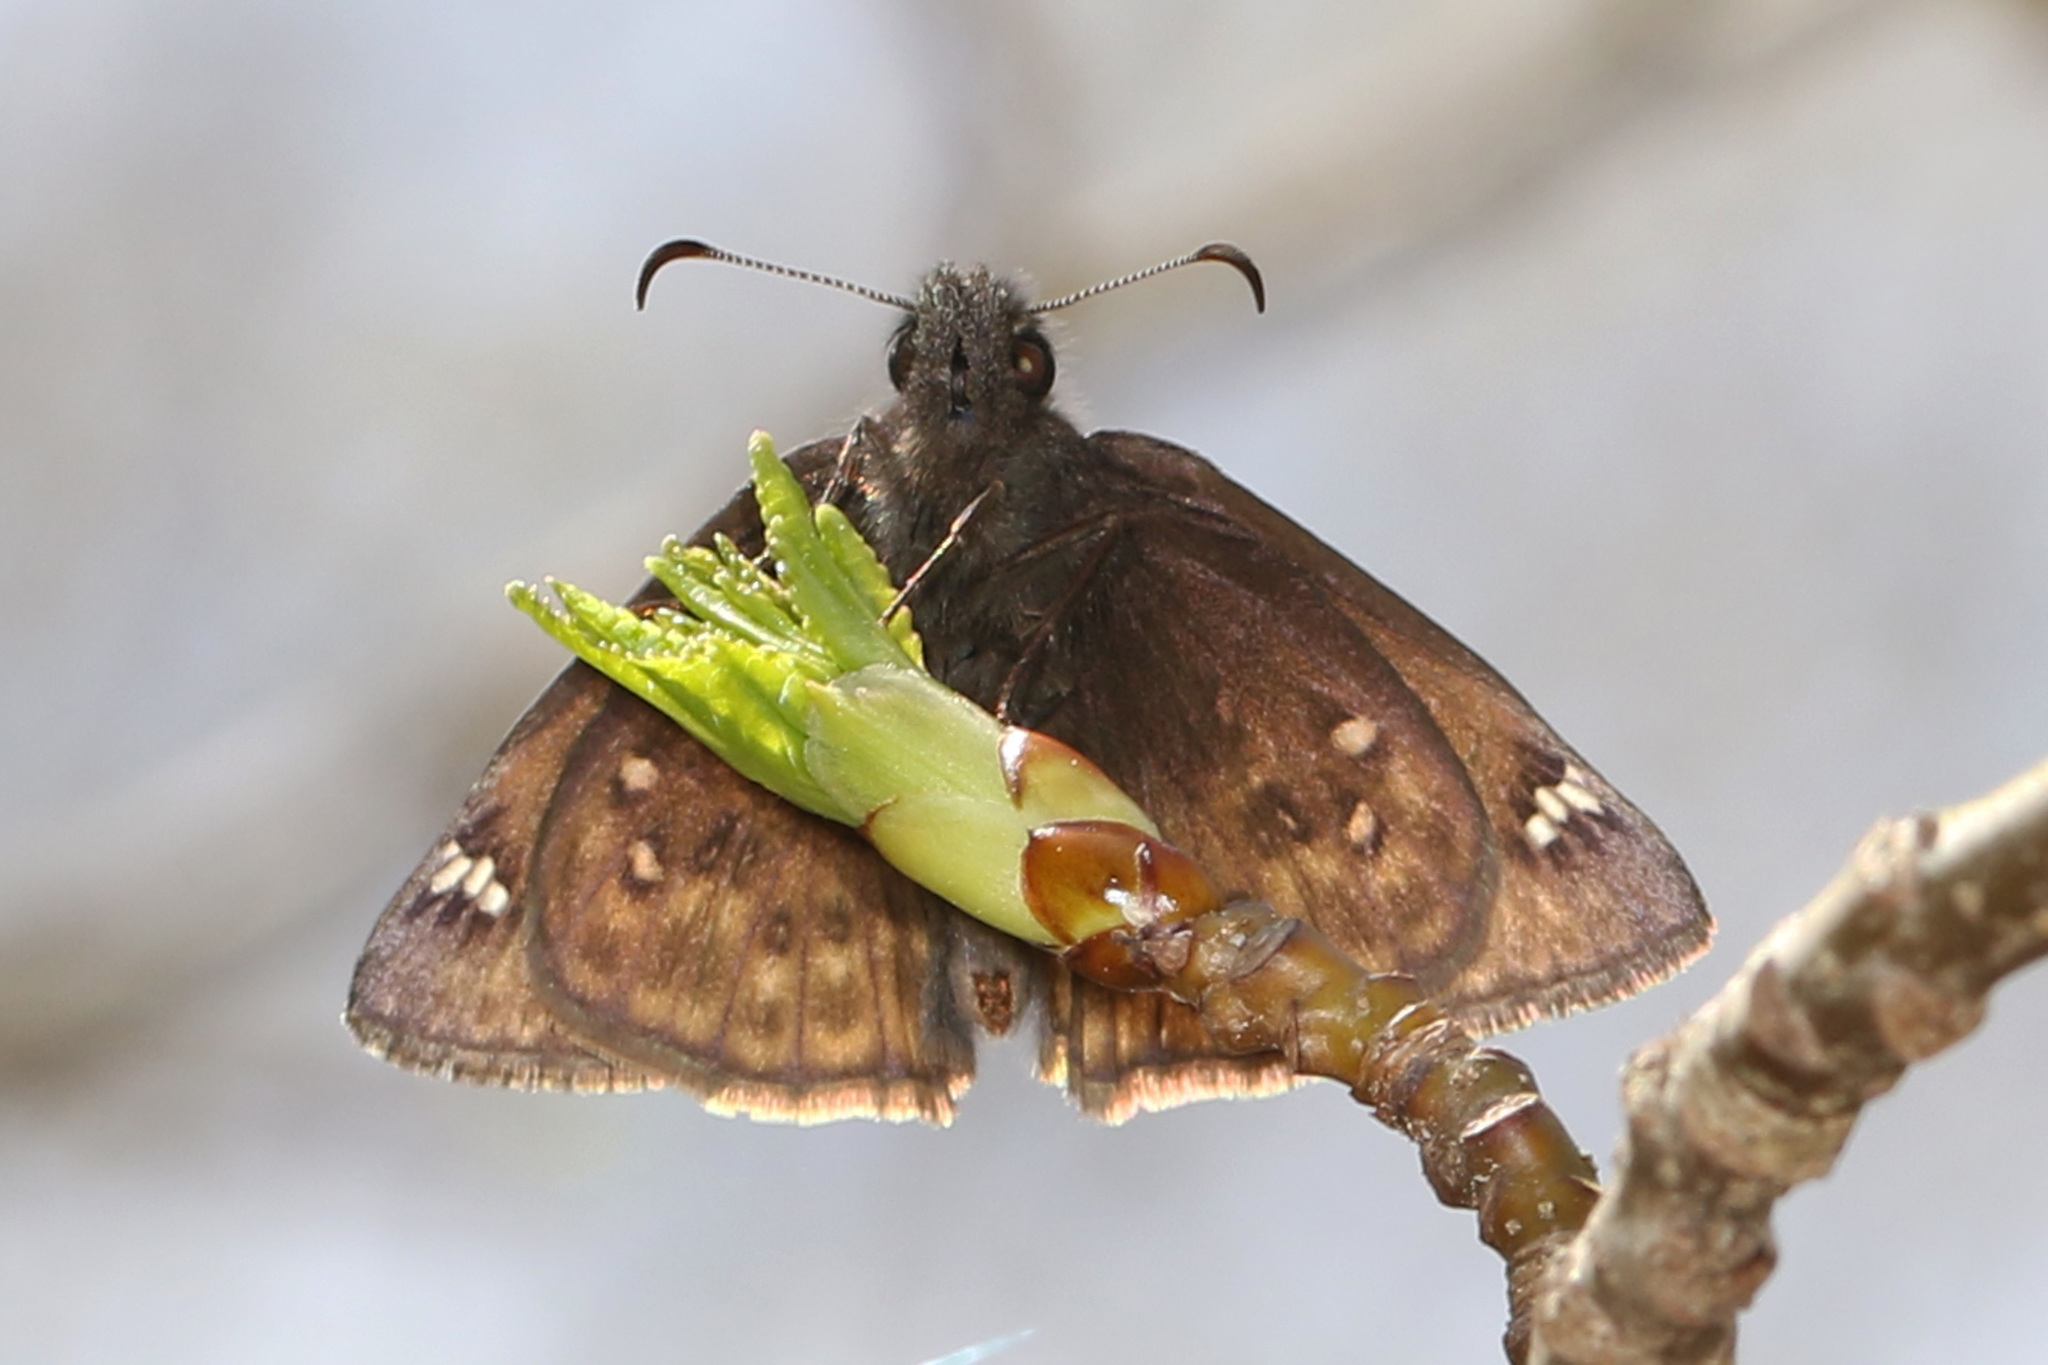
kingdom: Animalia
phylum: Arthropoda
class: Insecta
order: Lepidoptera
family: Hesperiidae
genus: Erynnis
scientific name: Erynnis juvenalis
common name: Juvenal's duskywing
